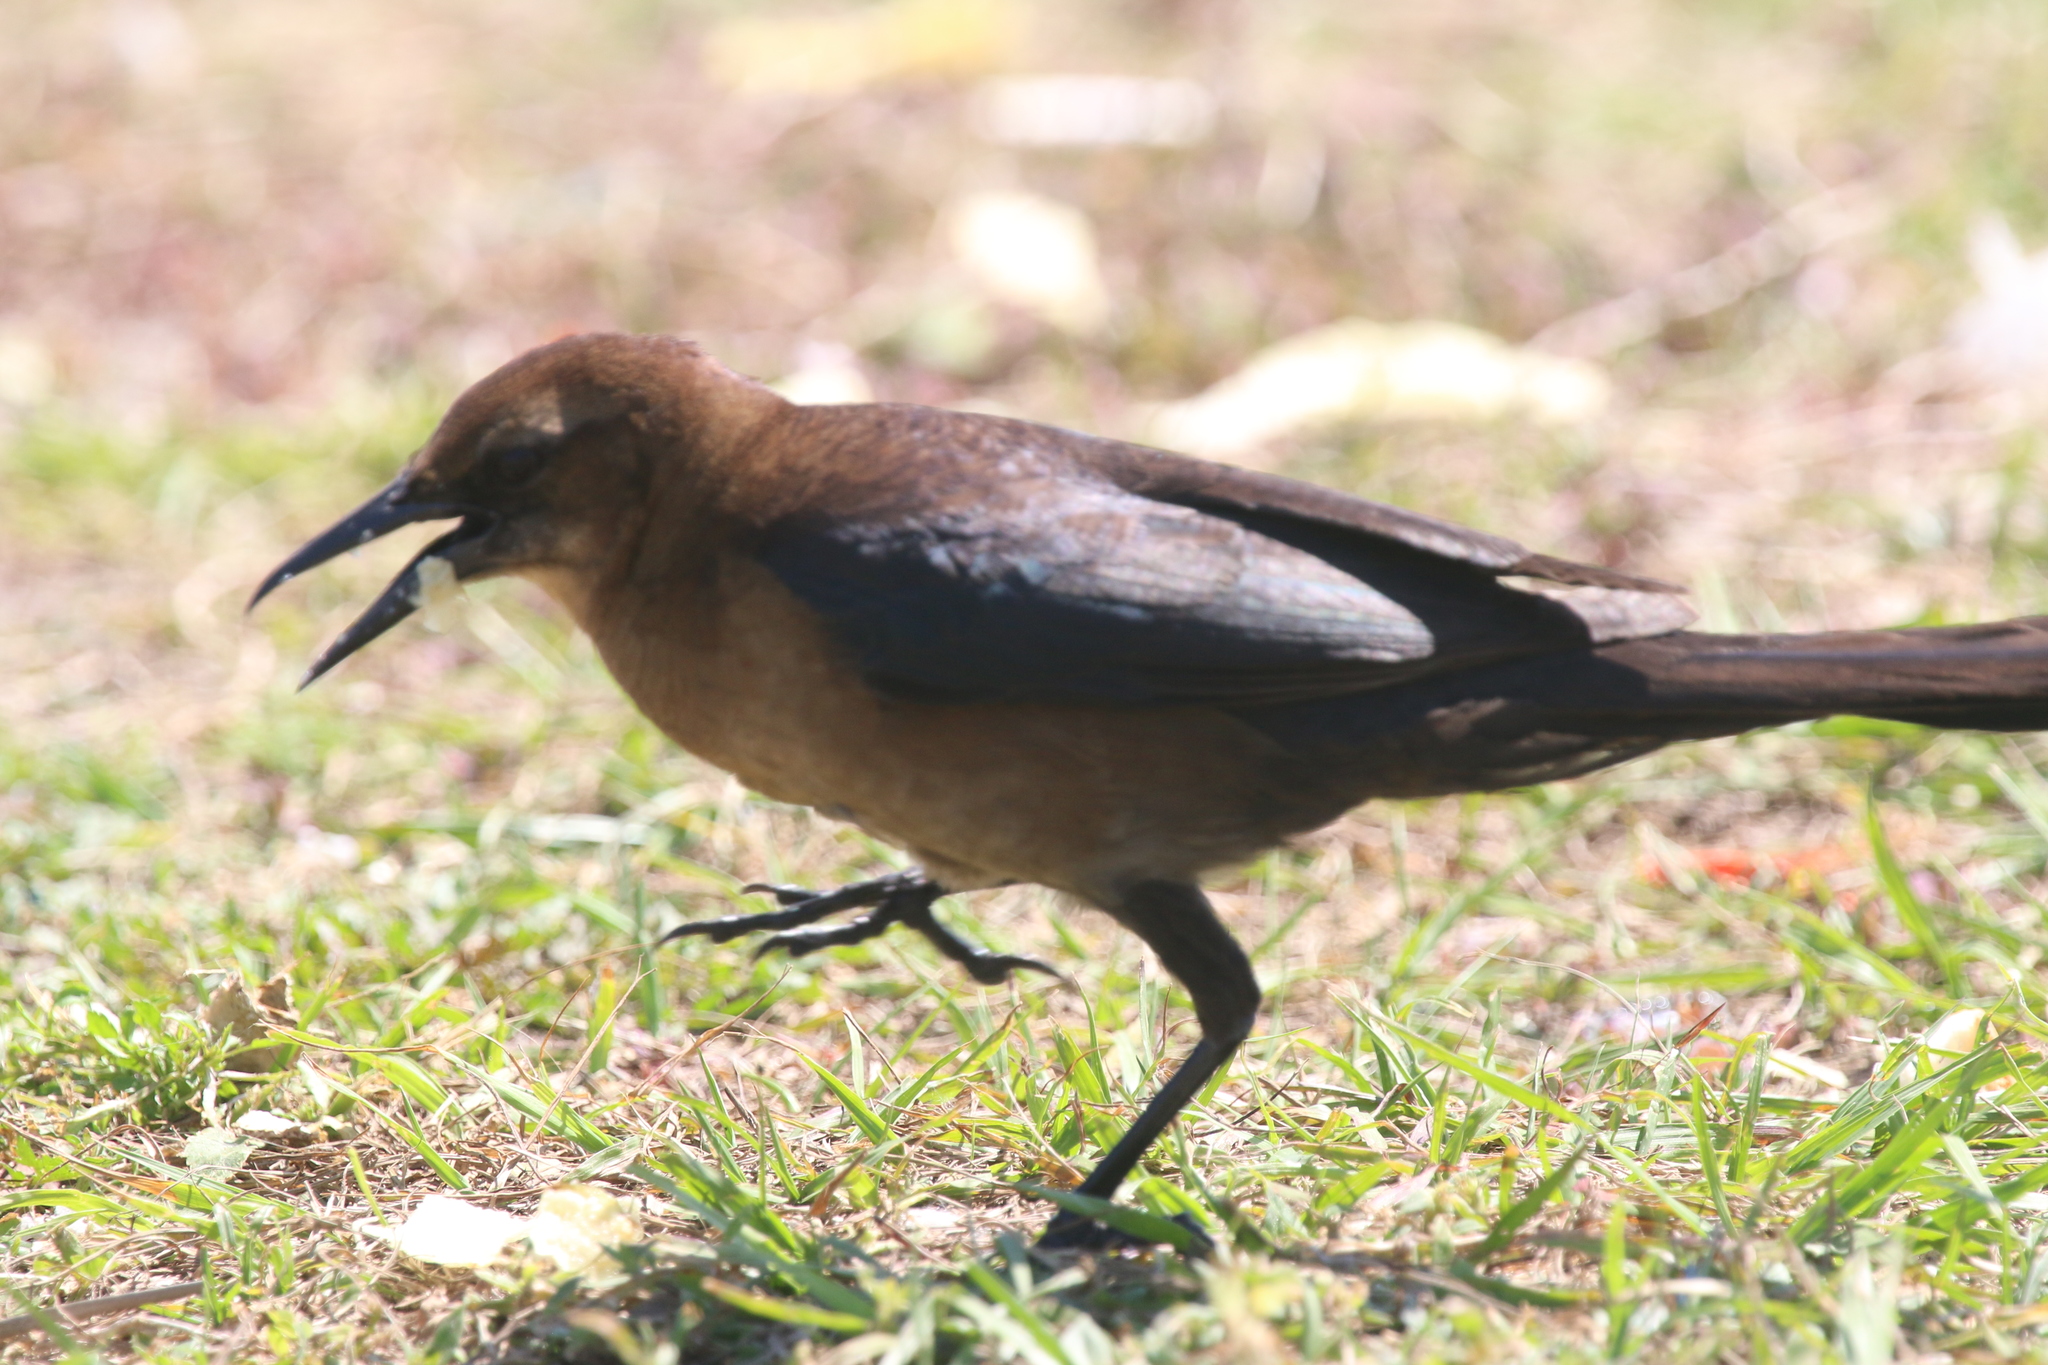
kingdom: Animalia
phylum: Chordata
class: Aves
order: Passeriformes
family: Icteridae
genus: Quiscalus
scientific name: Quiscalus major
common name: Boat-tailed grackle
